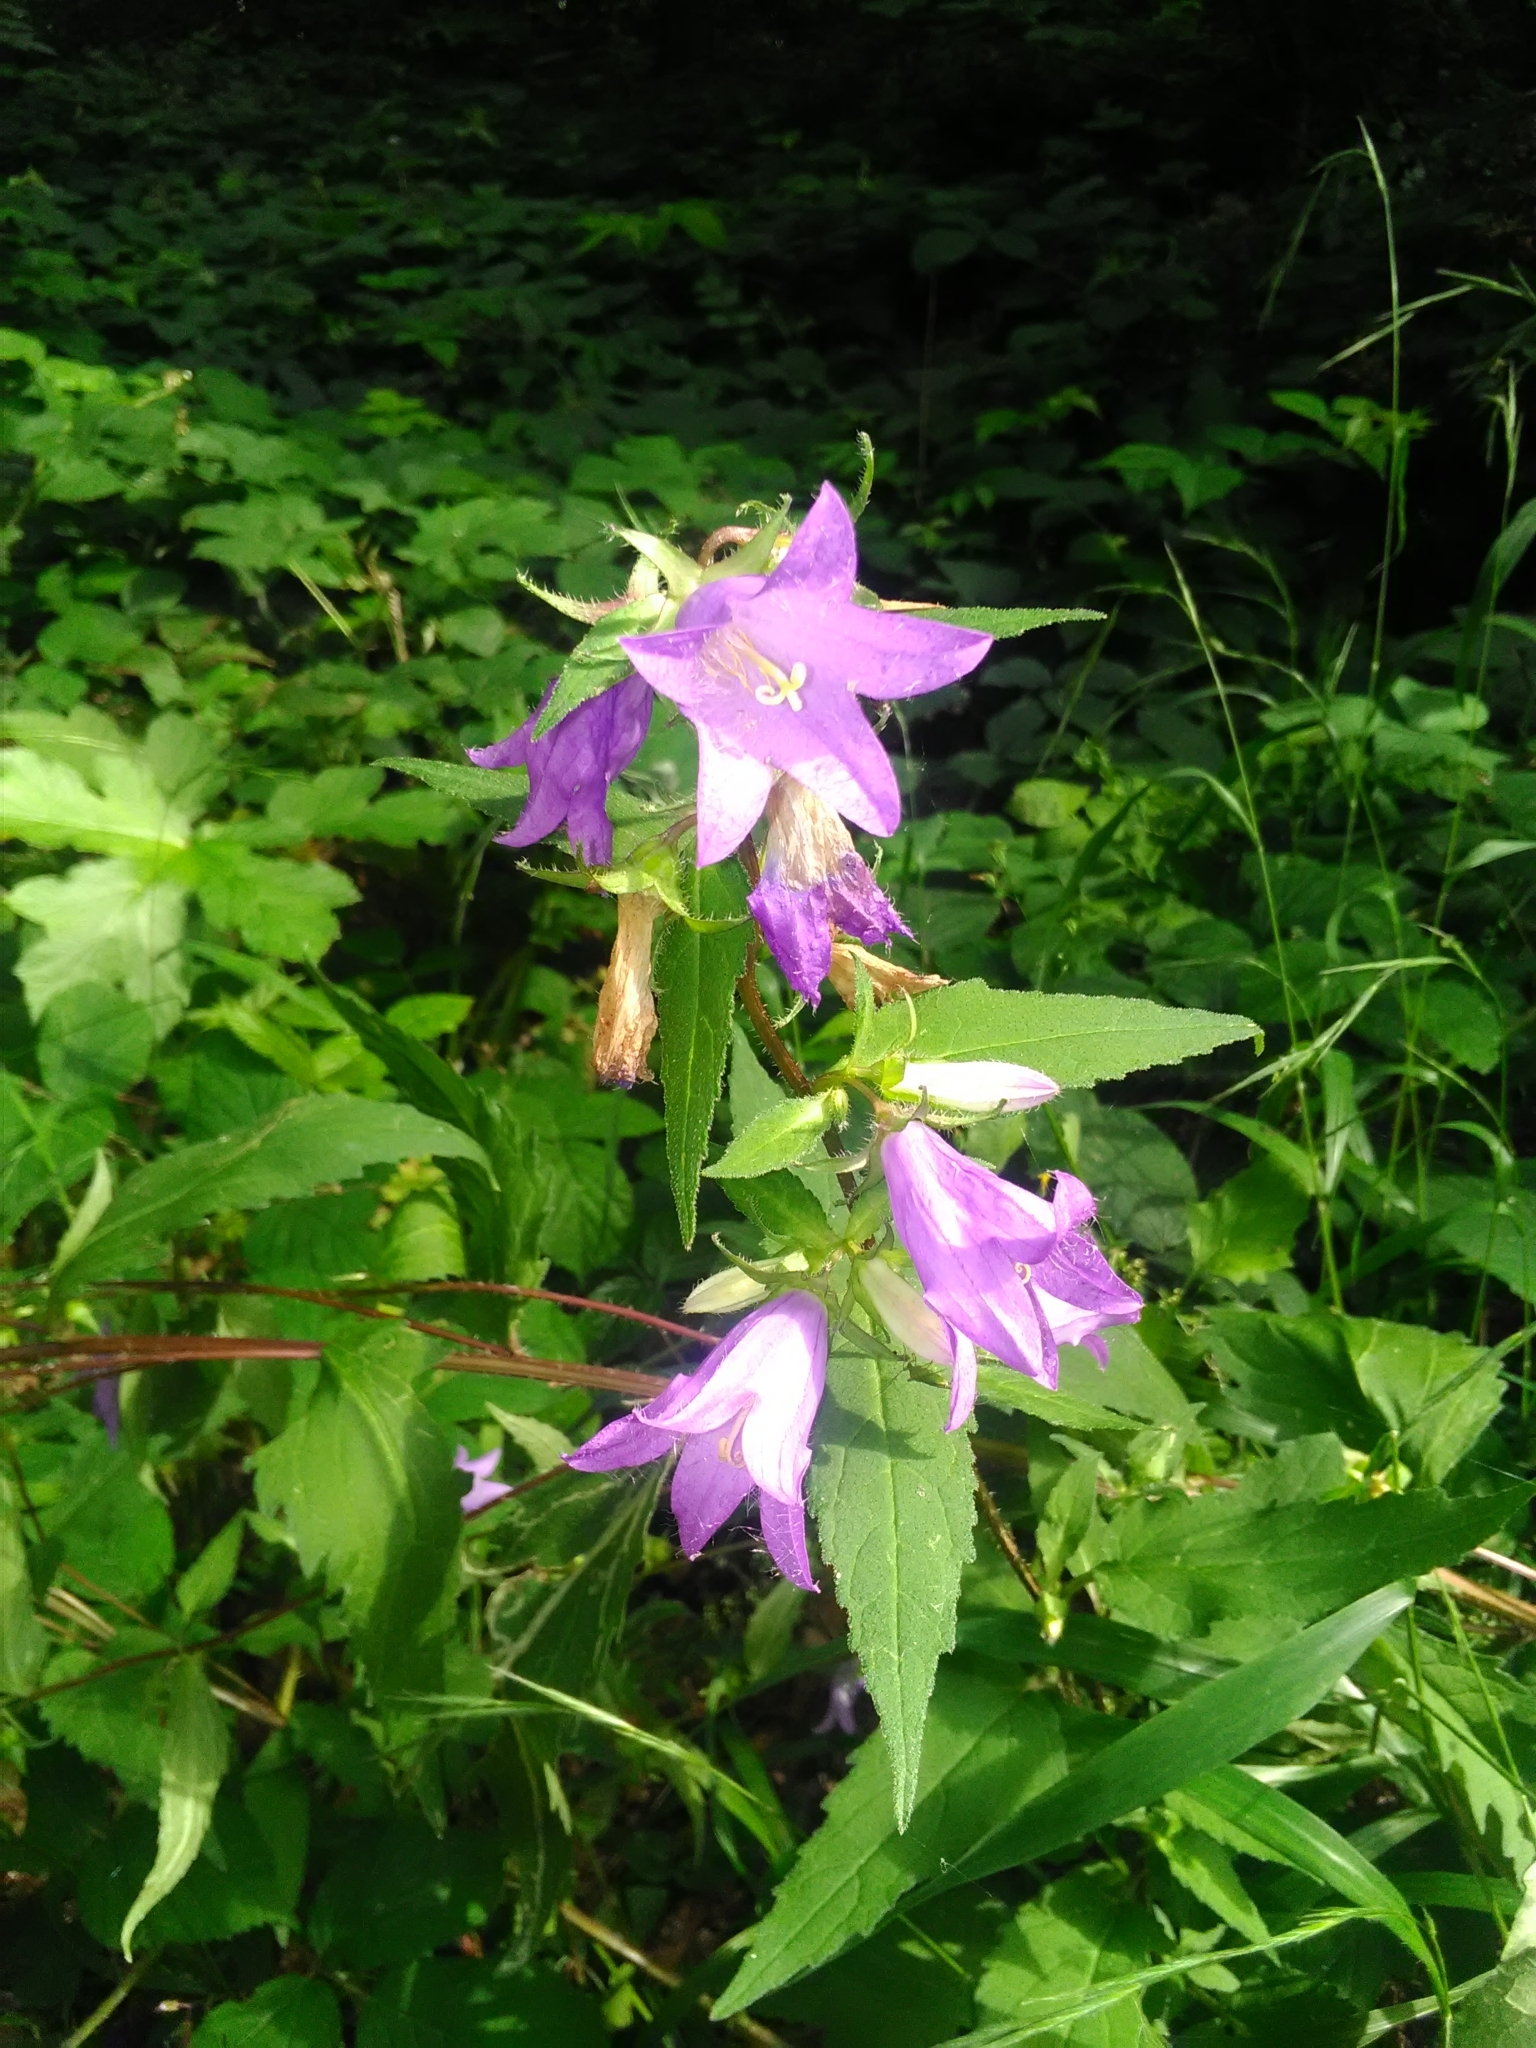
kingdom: Plantae
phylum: Tracheophyta
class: Magnoliopsida
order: Asterales
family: Campanulaceae
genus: Campanula
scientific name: Campanula trachelium
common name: Nettle-leaved bellflower
